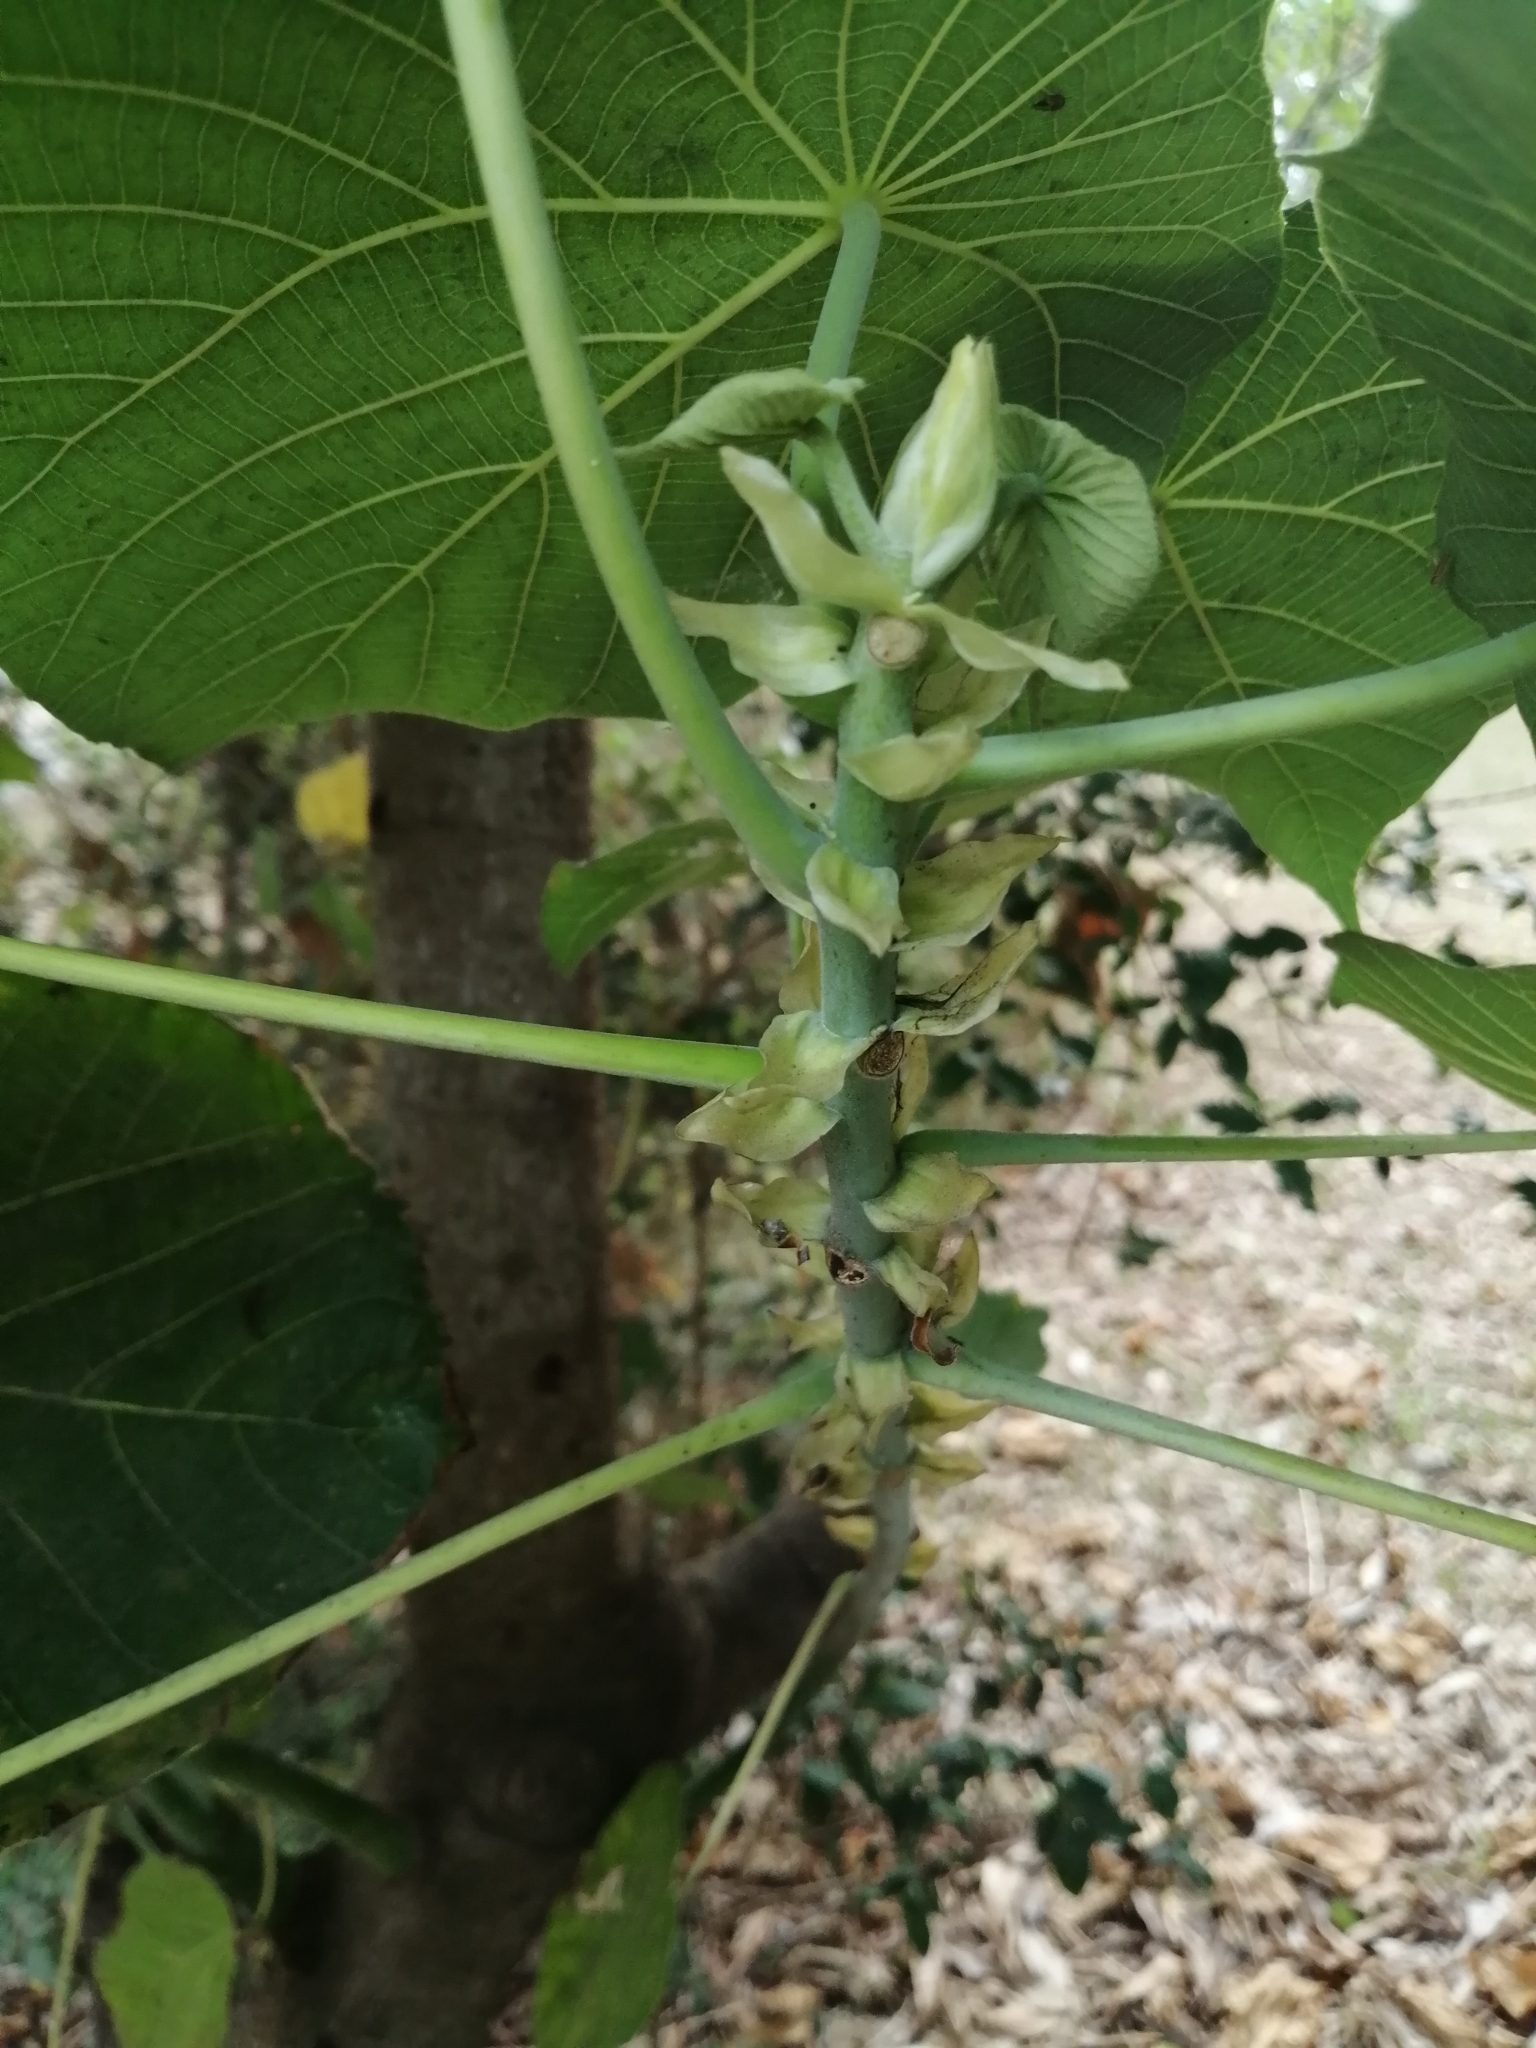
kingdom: Plantae
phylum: Tracheophyta
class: Magnoliopsida
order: Malpighiales
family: Euphorbiaceae
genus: Macaranga
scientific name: Macaranga tanarius
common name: Parasol leaf tree
